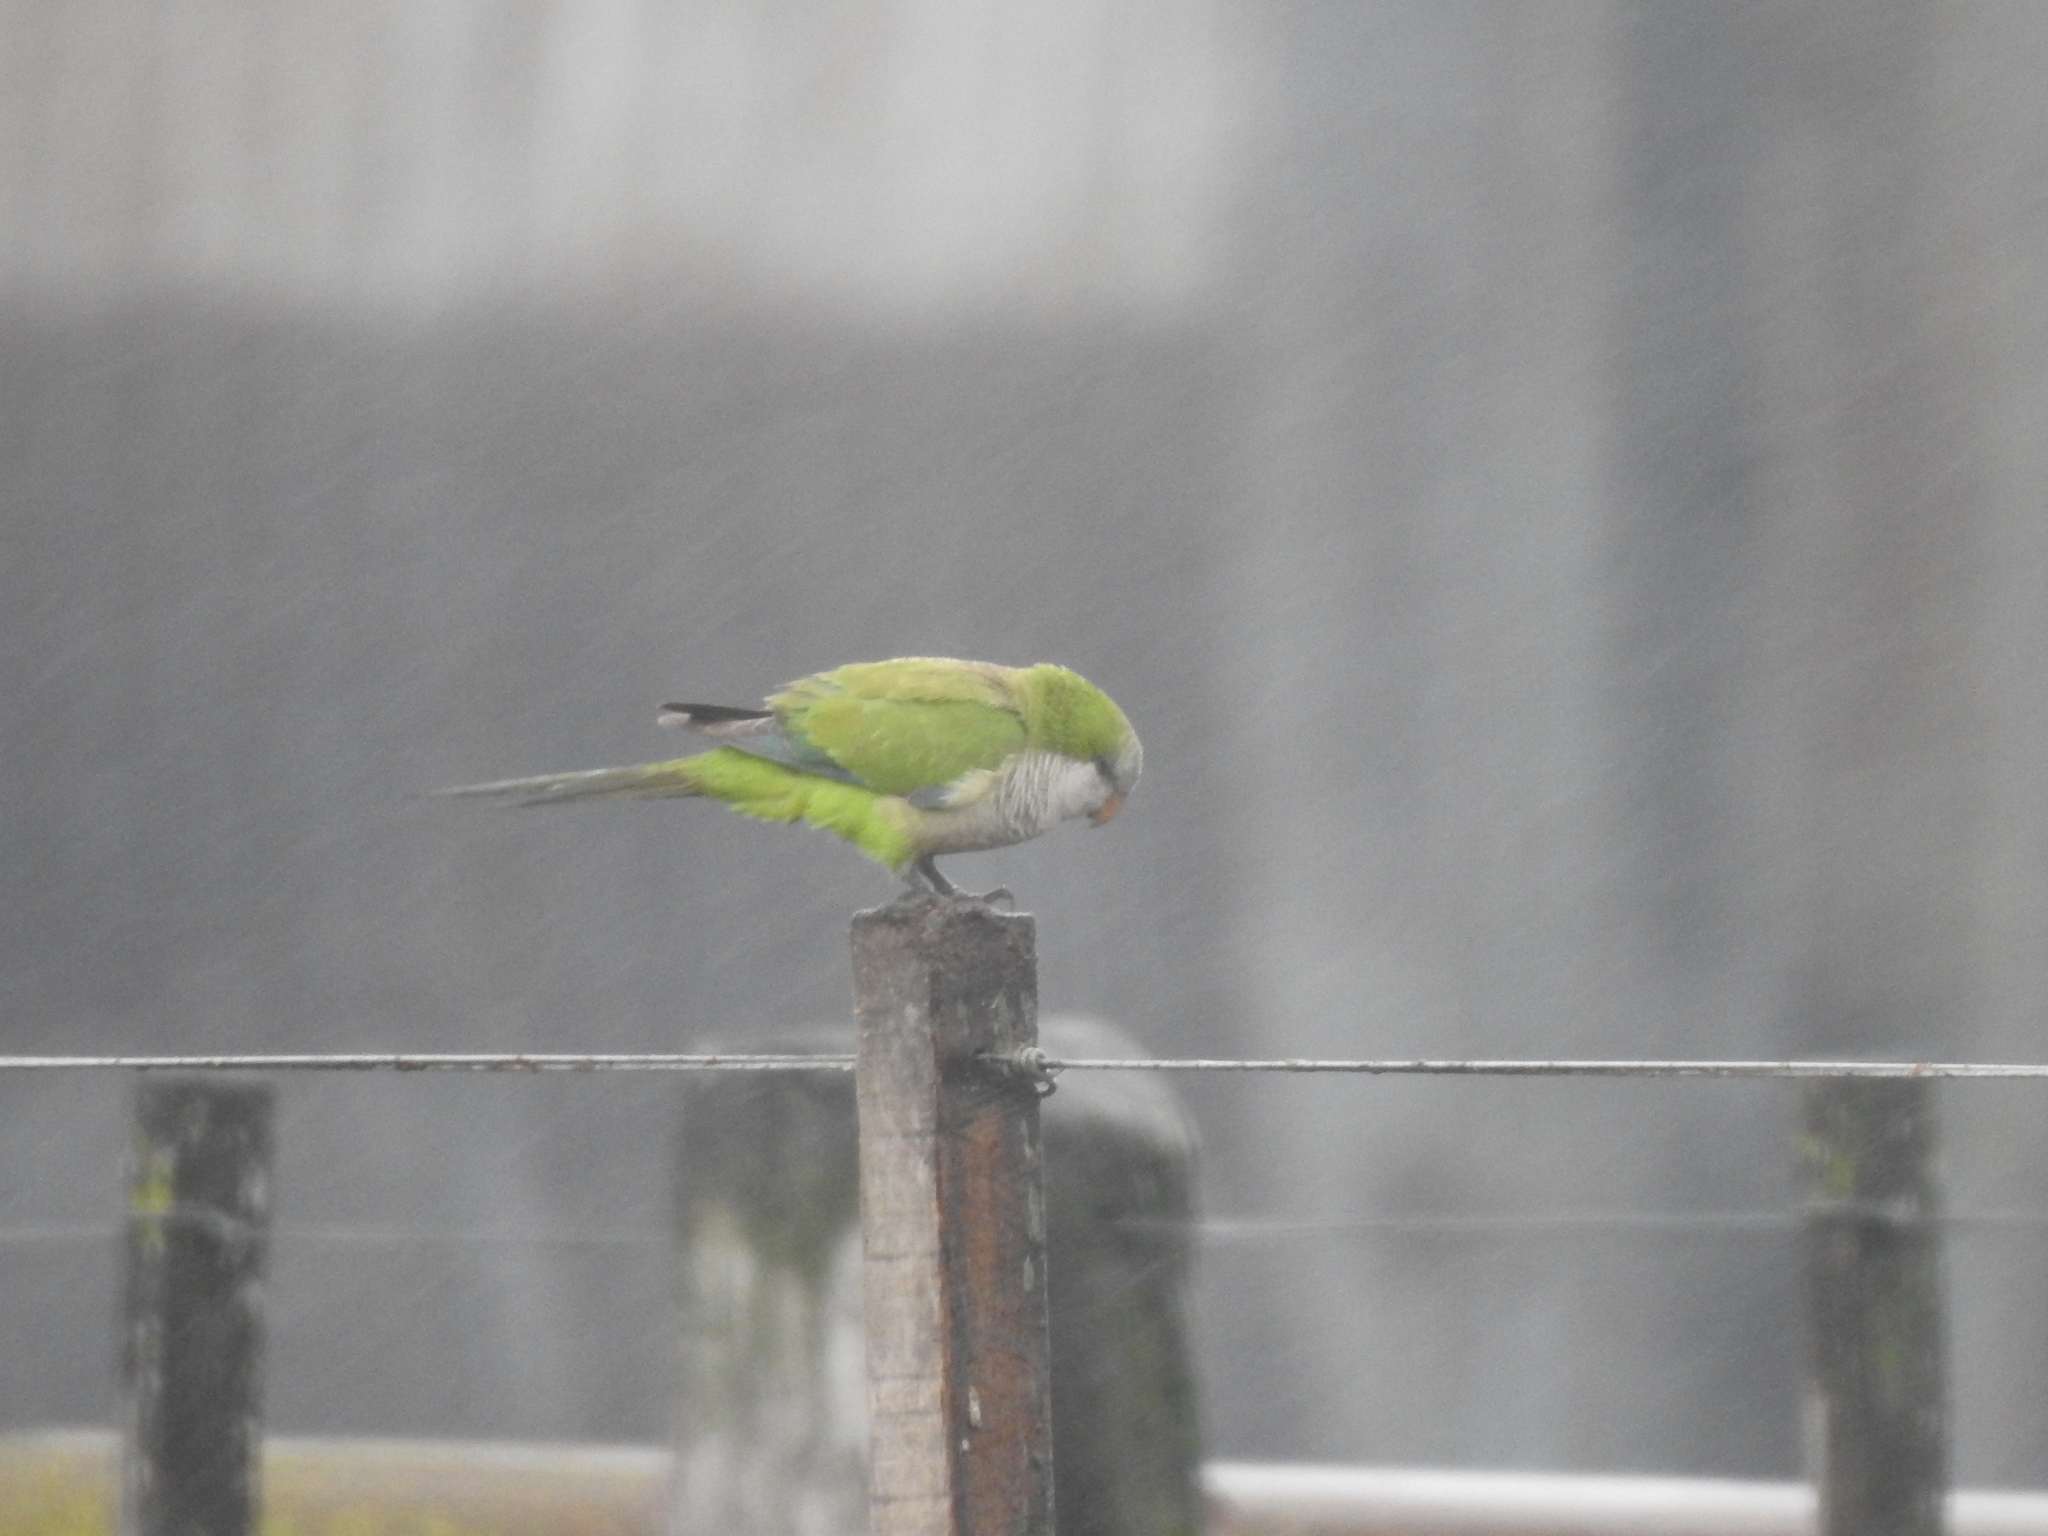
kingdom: Animalia
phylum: Chordata
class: Aves
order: Psittaciformes
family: Psittacidae
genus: Myiopsitta
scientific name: Myiopsitta monachus
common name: Monk parakeet
